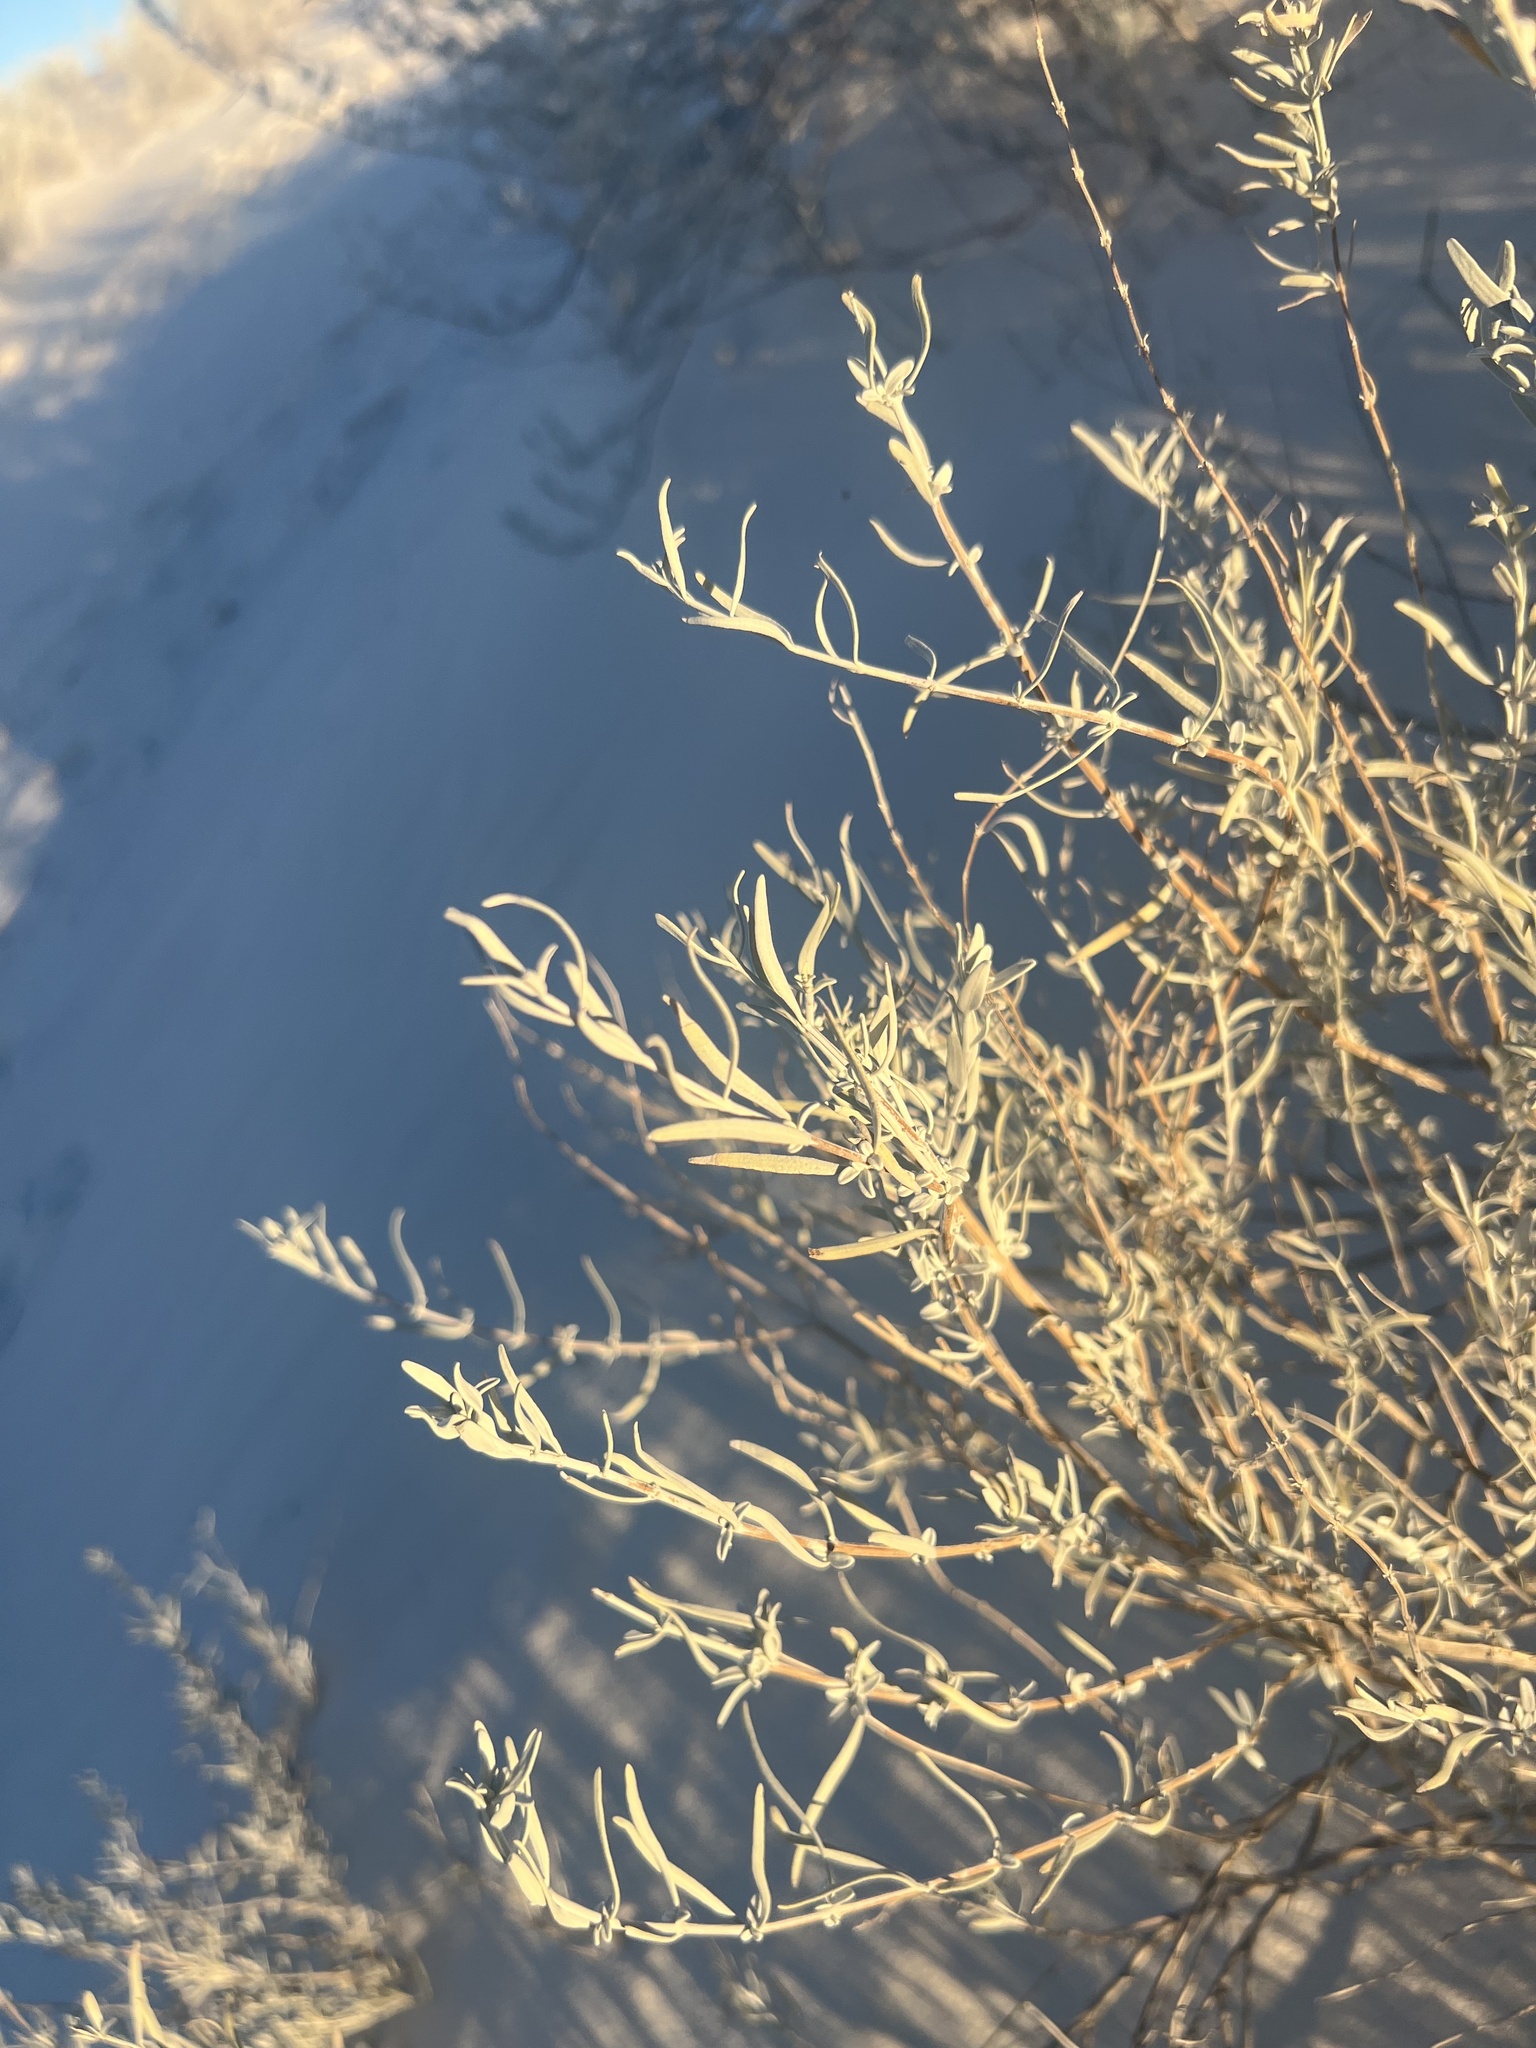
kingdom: Plantae
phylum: Tracheophyta
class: Magnoliopsida
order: Lamiales
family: Lamiaceae
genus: Poliomintha
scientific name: Poliomintha incana
